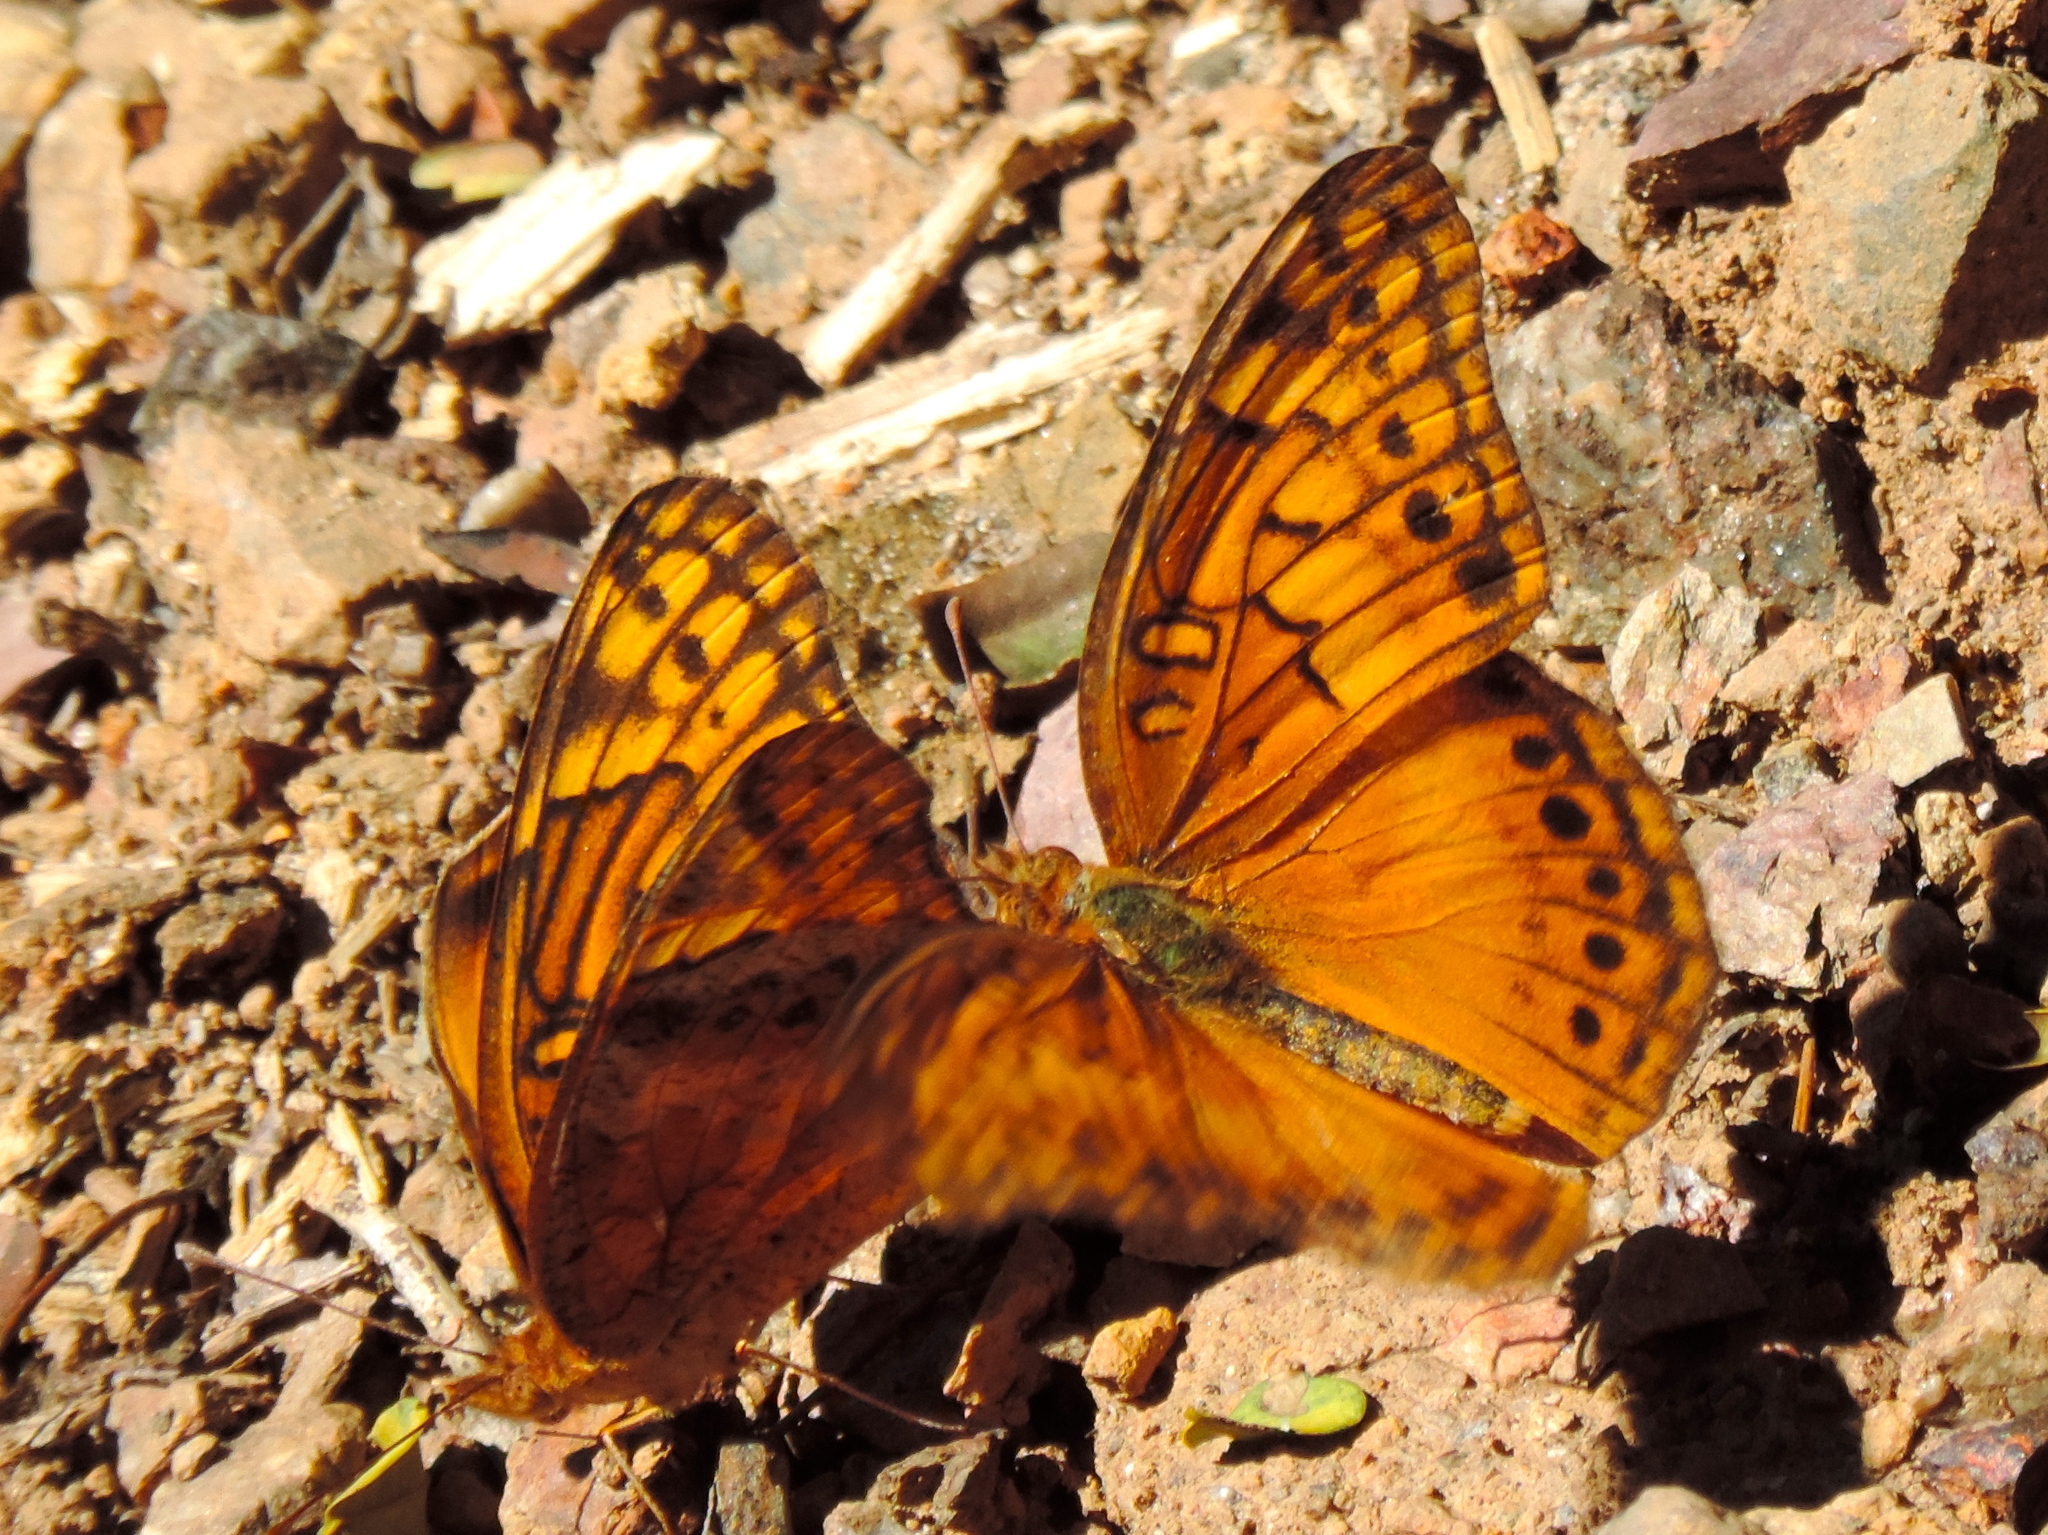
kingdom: Animalia
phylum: Arthropoda
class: Insecta
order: Lepidoptera
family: Nymphalidae
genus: Euptoieta
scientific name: Euptoieta hegesia
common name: Mexican fritillary
